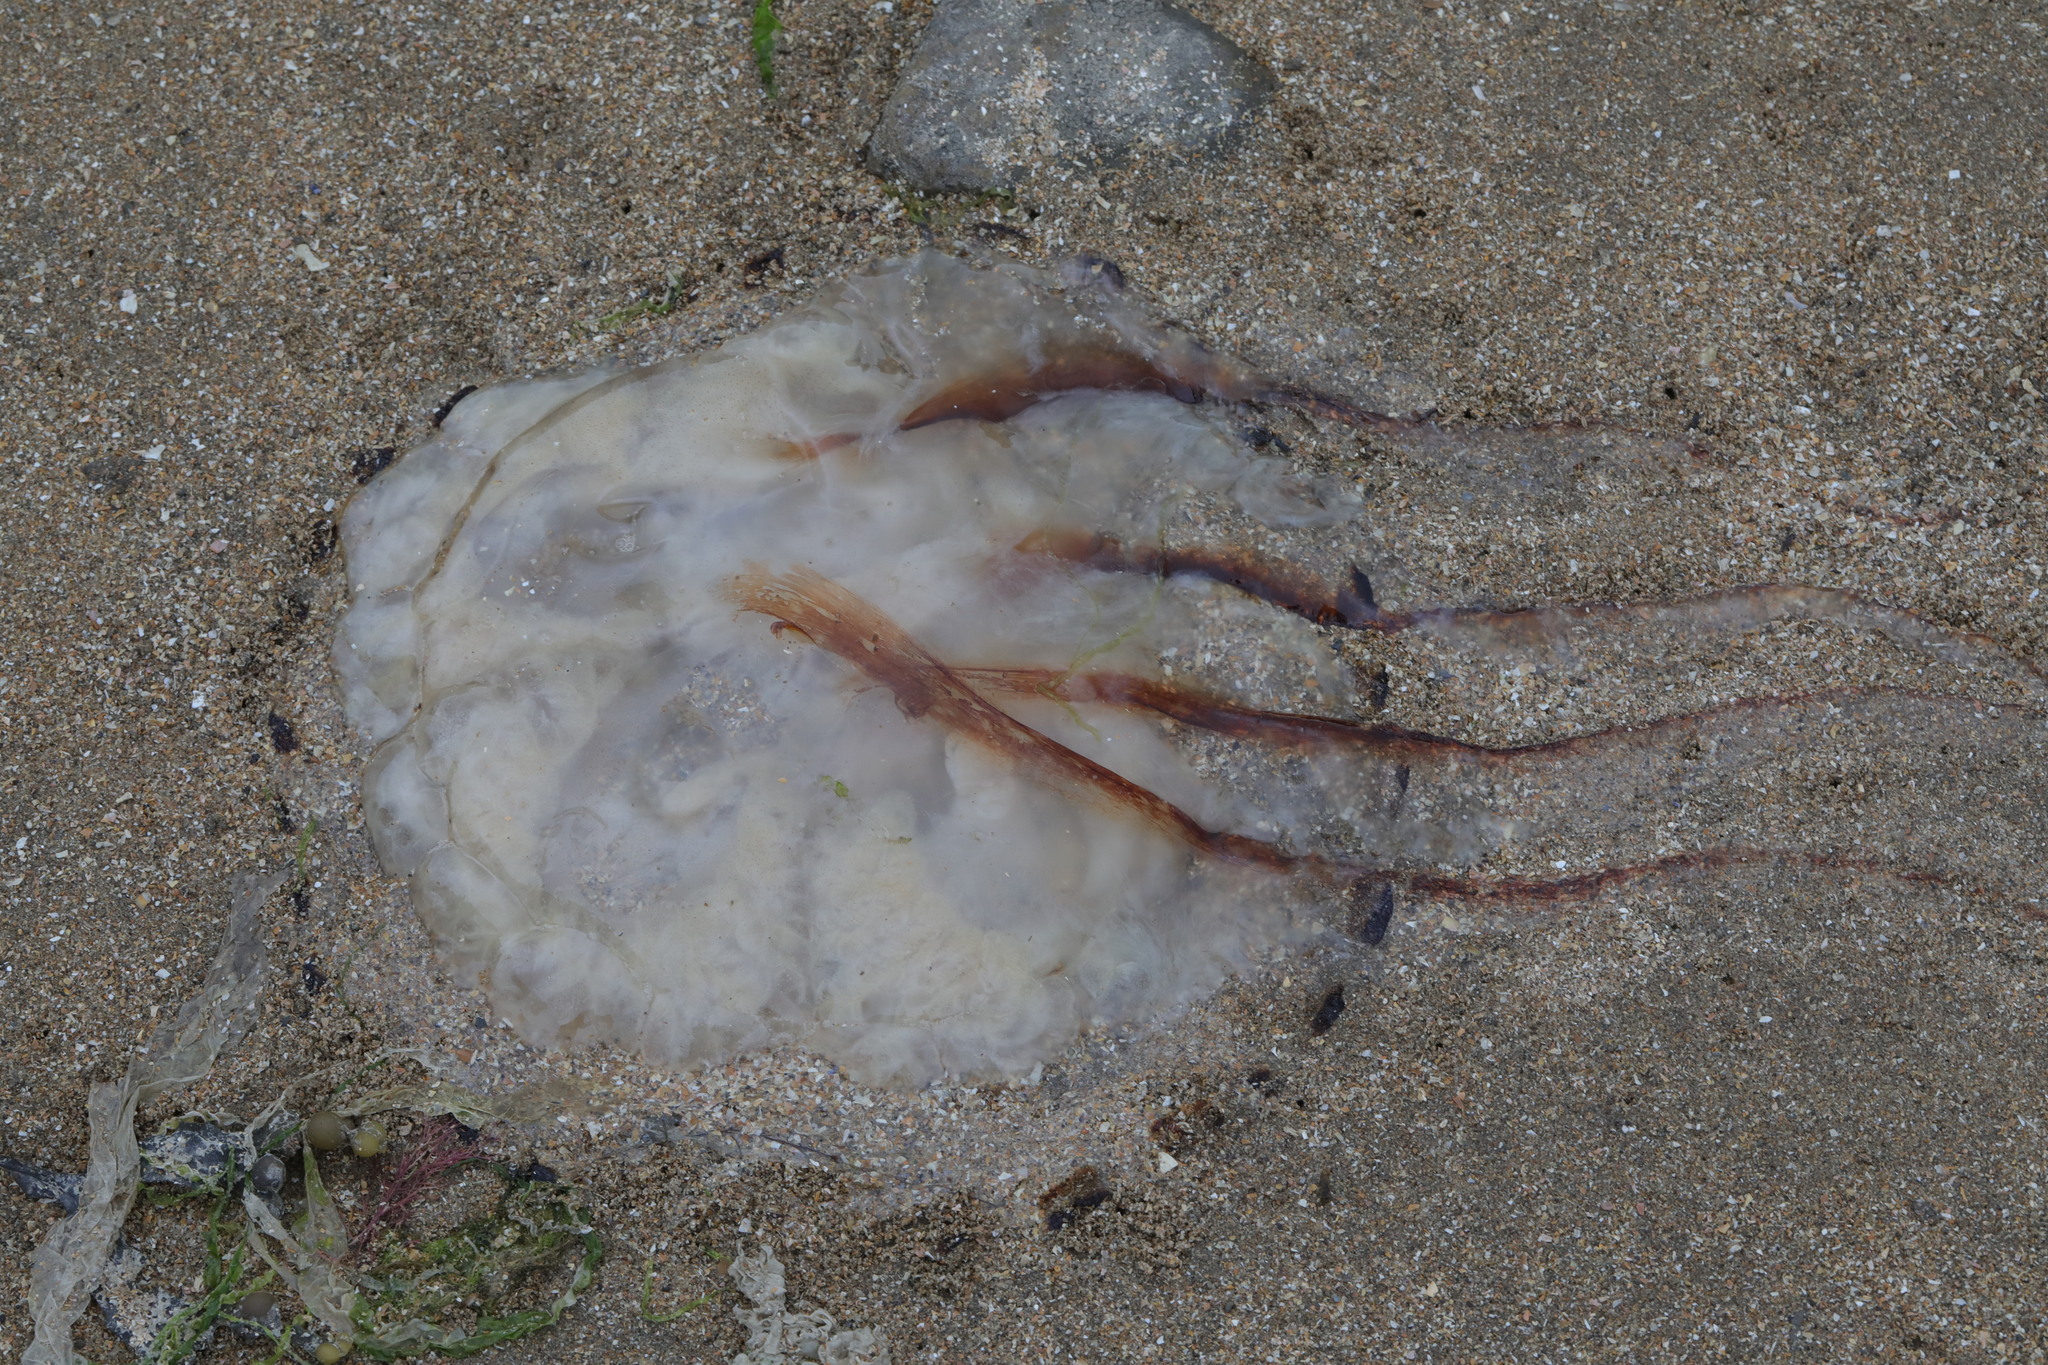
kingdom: Animalia
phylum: Cnidaria
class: Scyphozoa
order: Semaeostomeae
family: Pelagiidae
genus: Chrysaora
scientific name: Chrysaora hysoscella
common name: Compass jellyfish
